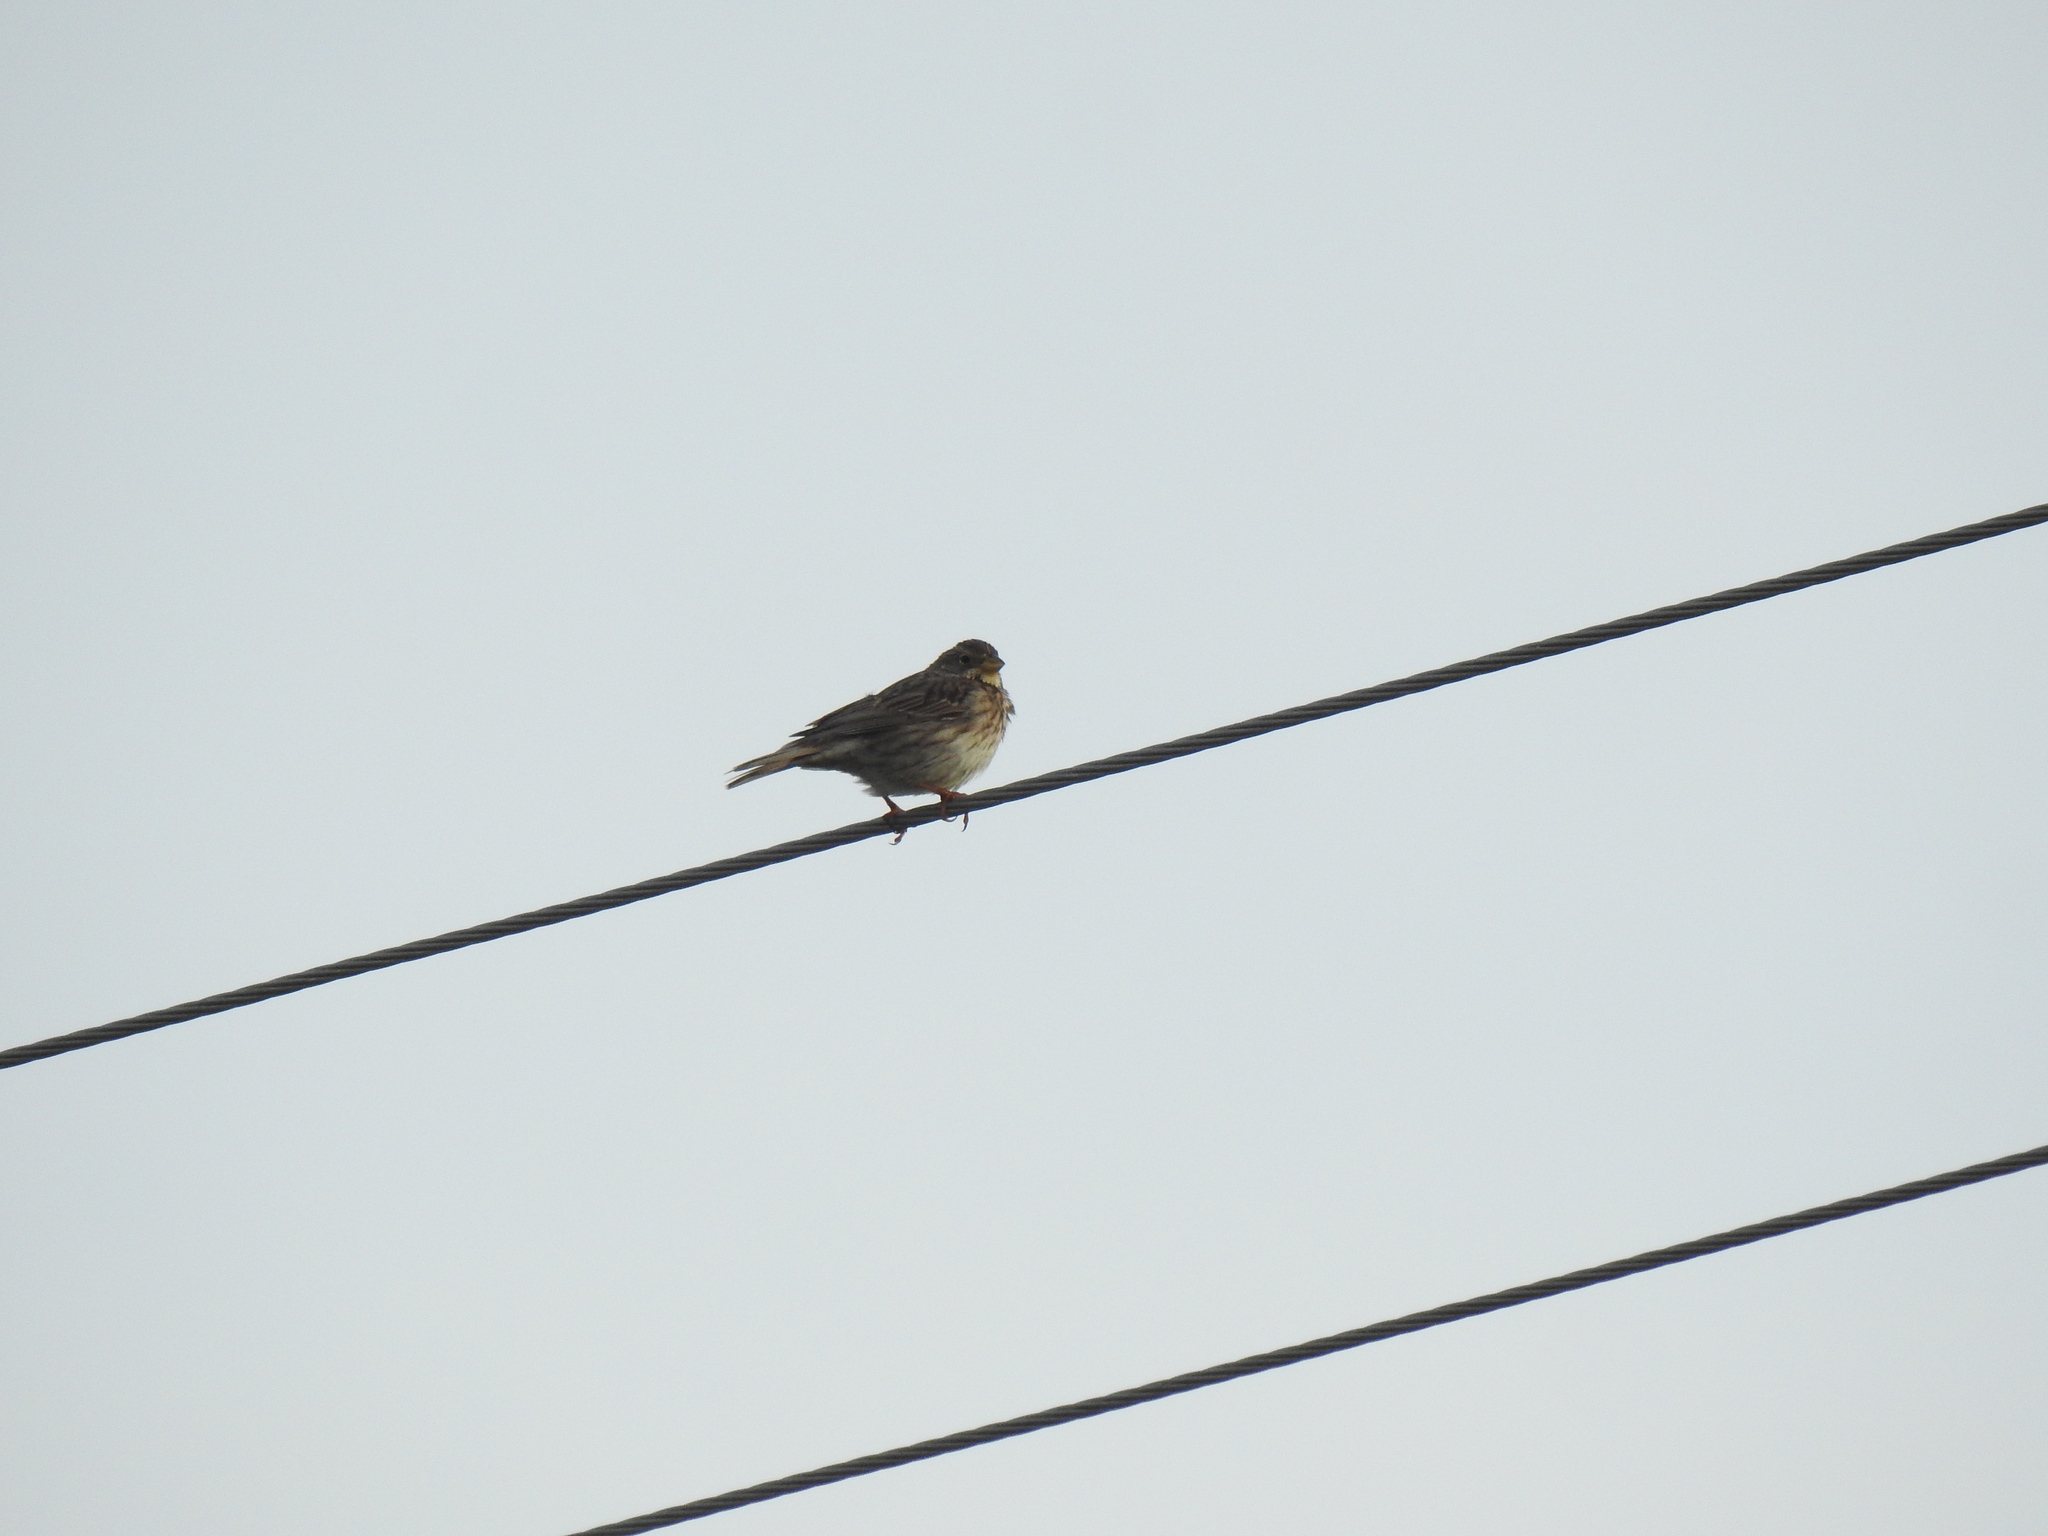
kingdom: Animalia
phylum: Chordata
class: Aves
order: Passeriformes
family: Emberizidae
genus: Emberiza
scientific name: Emberiza calandra
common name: Corn bunting
